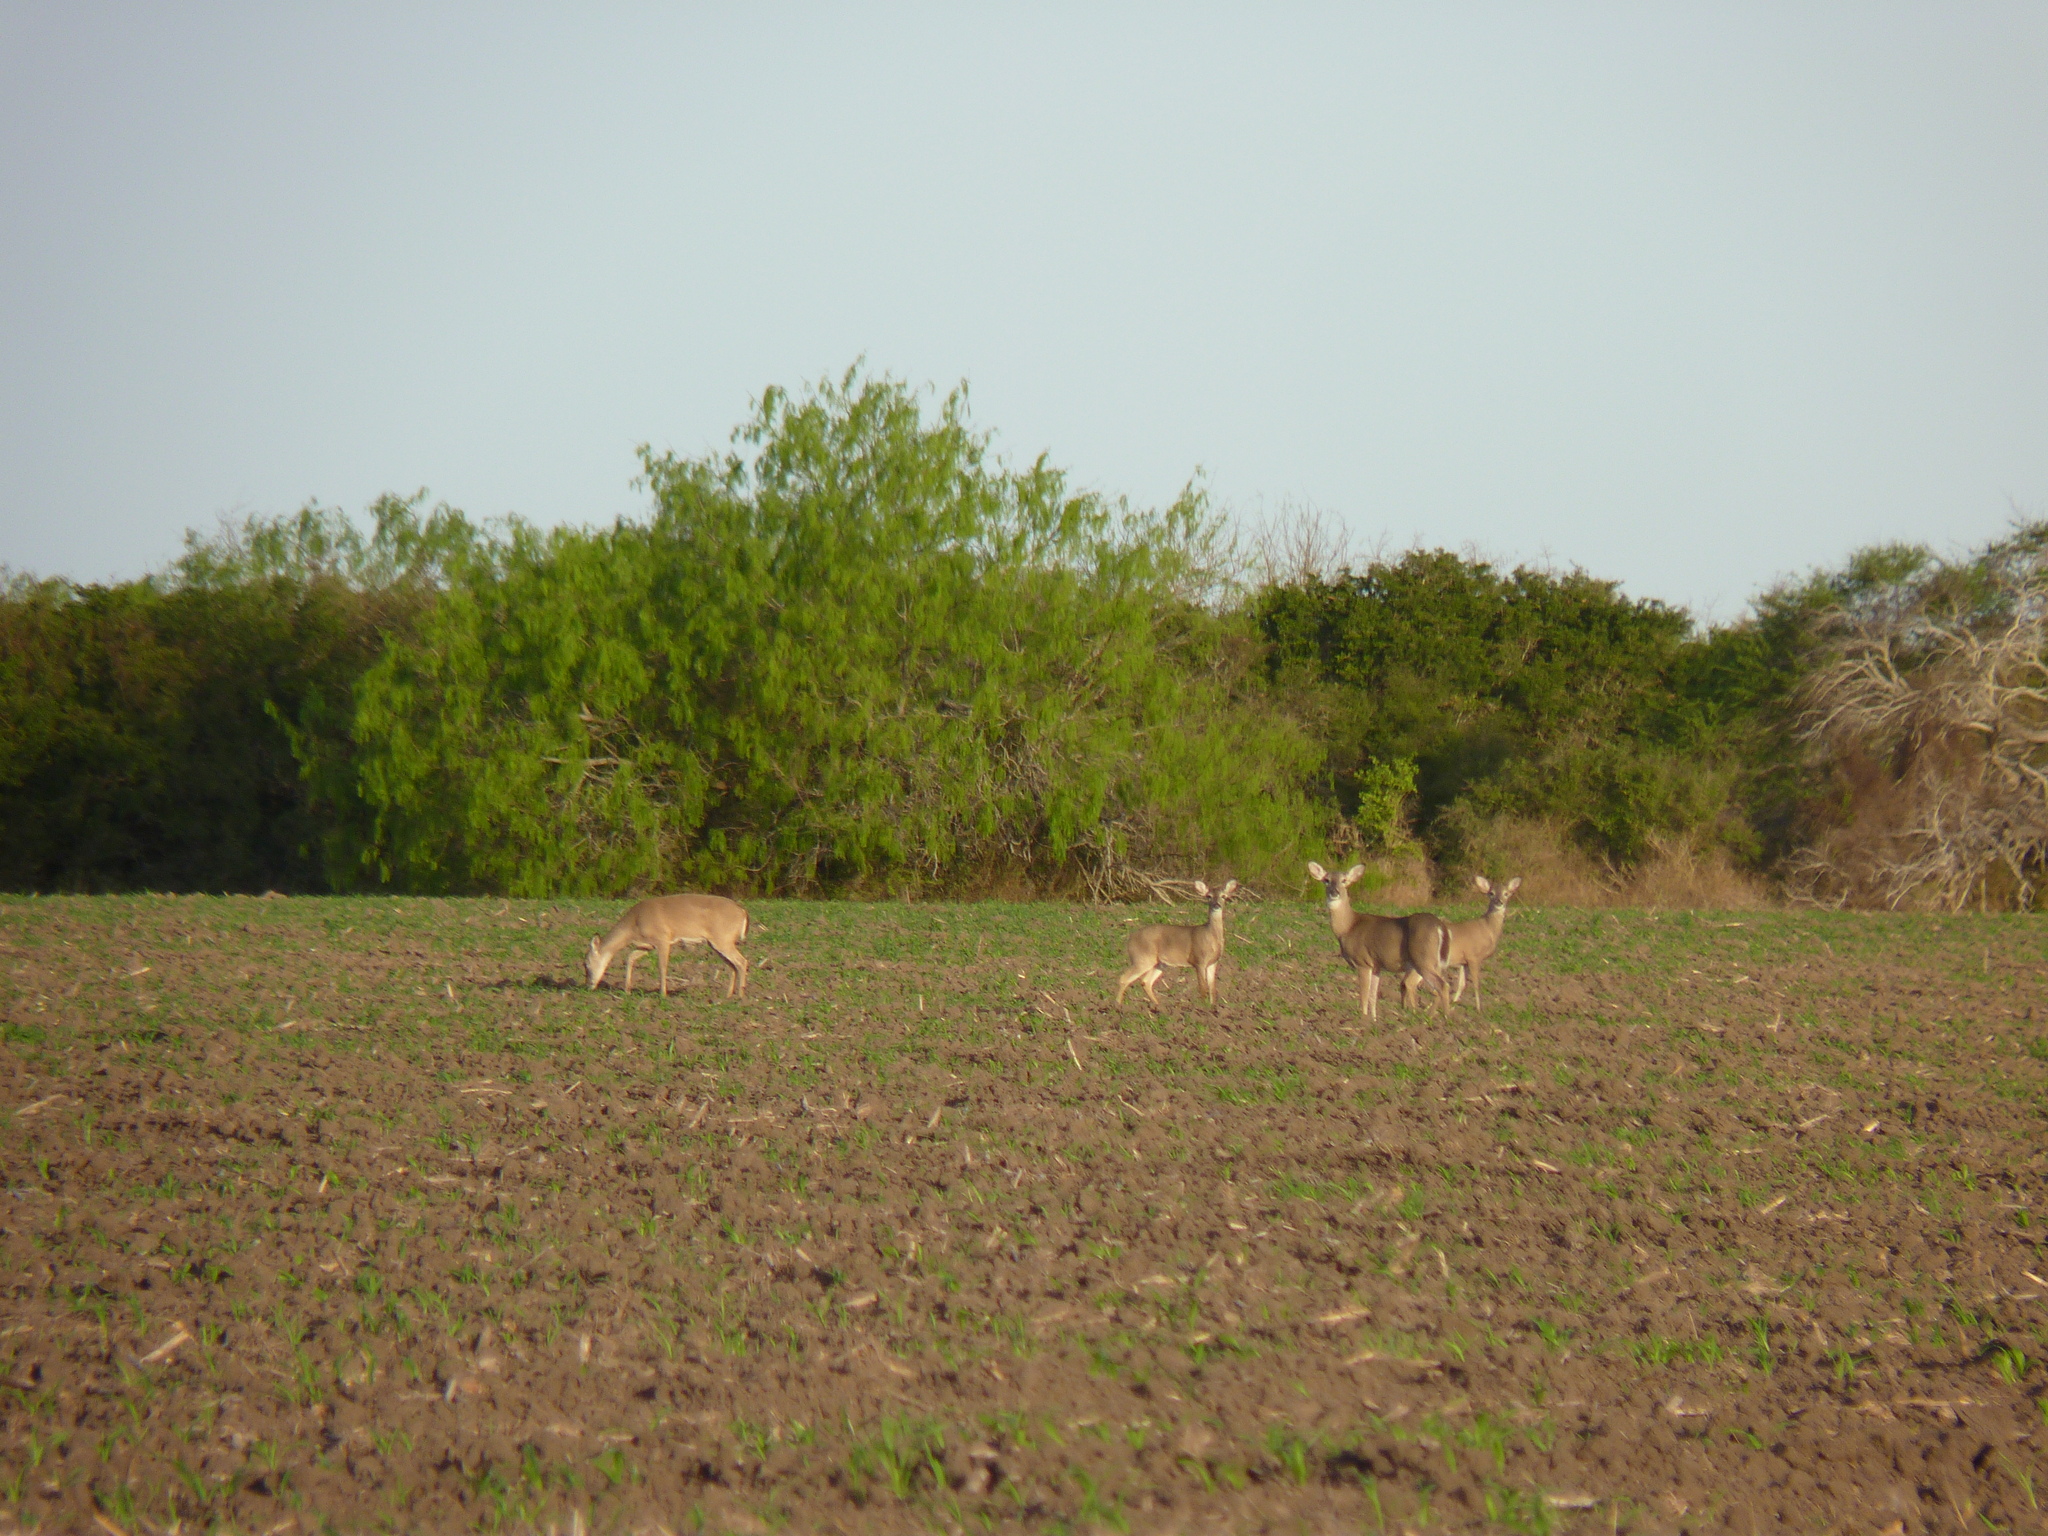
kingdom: Animalia
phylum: Chordata
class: Mammalia
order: Artiodactyla
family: Cervidae
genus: Odocoileus
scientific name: Odocoileus virginianus
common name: White-tailed deer
